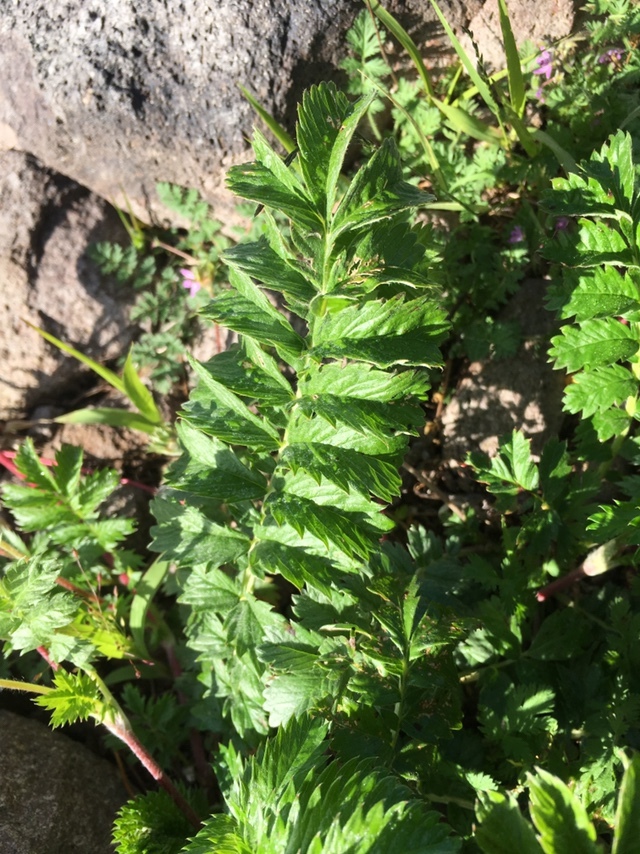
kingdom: Plantae
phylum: Tracheophyta
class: Magnoliopsida
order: Rosales
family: Rosaceae
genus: Argentina
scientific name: Argentina anserina
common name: Common silverweed
